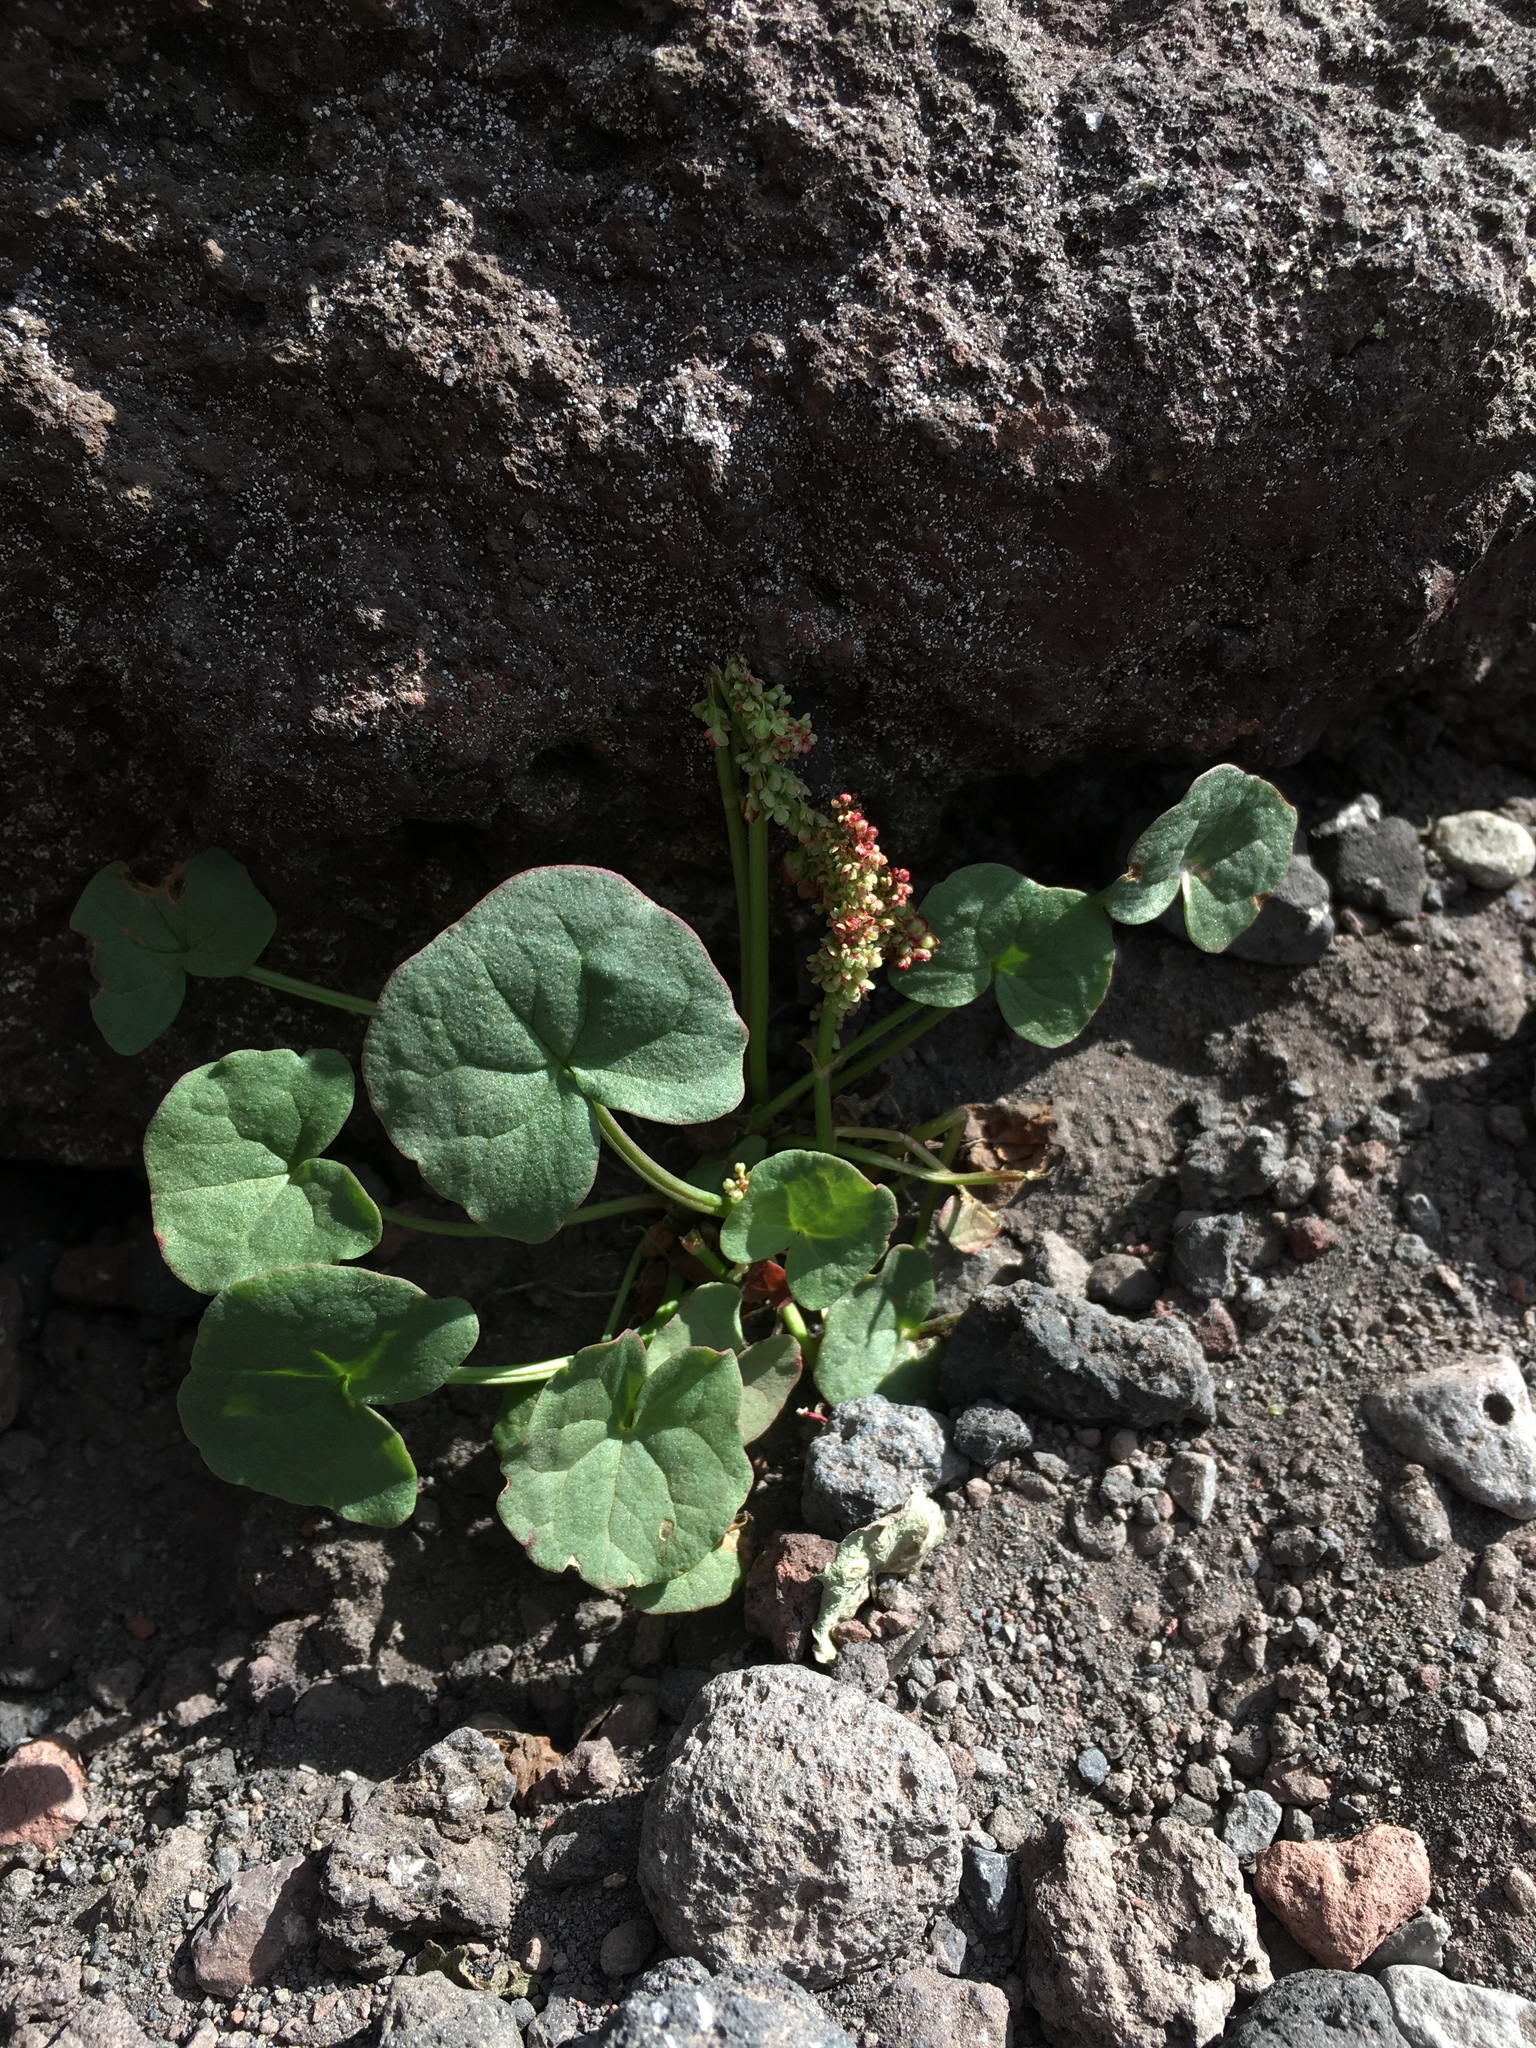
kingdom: Plantae
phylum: Tracheophyta
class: Magnoliopsida
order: Caryophyllales
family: Polygonaceae
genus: Oxyria
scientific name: Oxyria digyna
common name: Alpine mountain-sorrel
